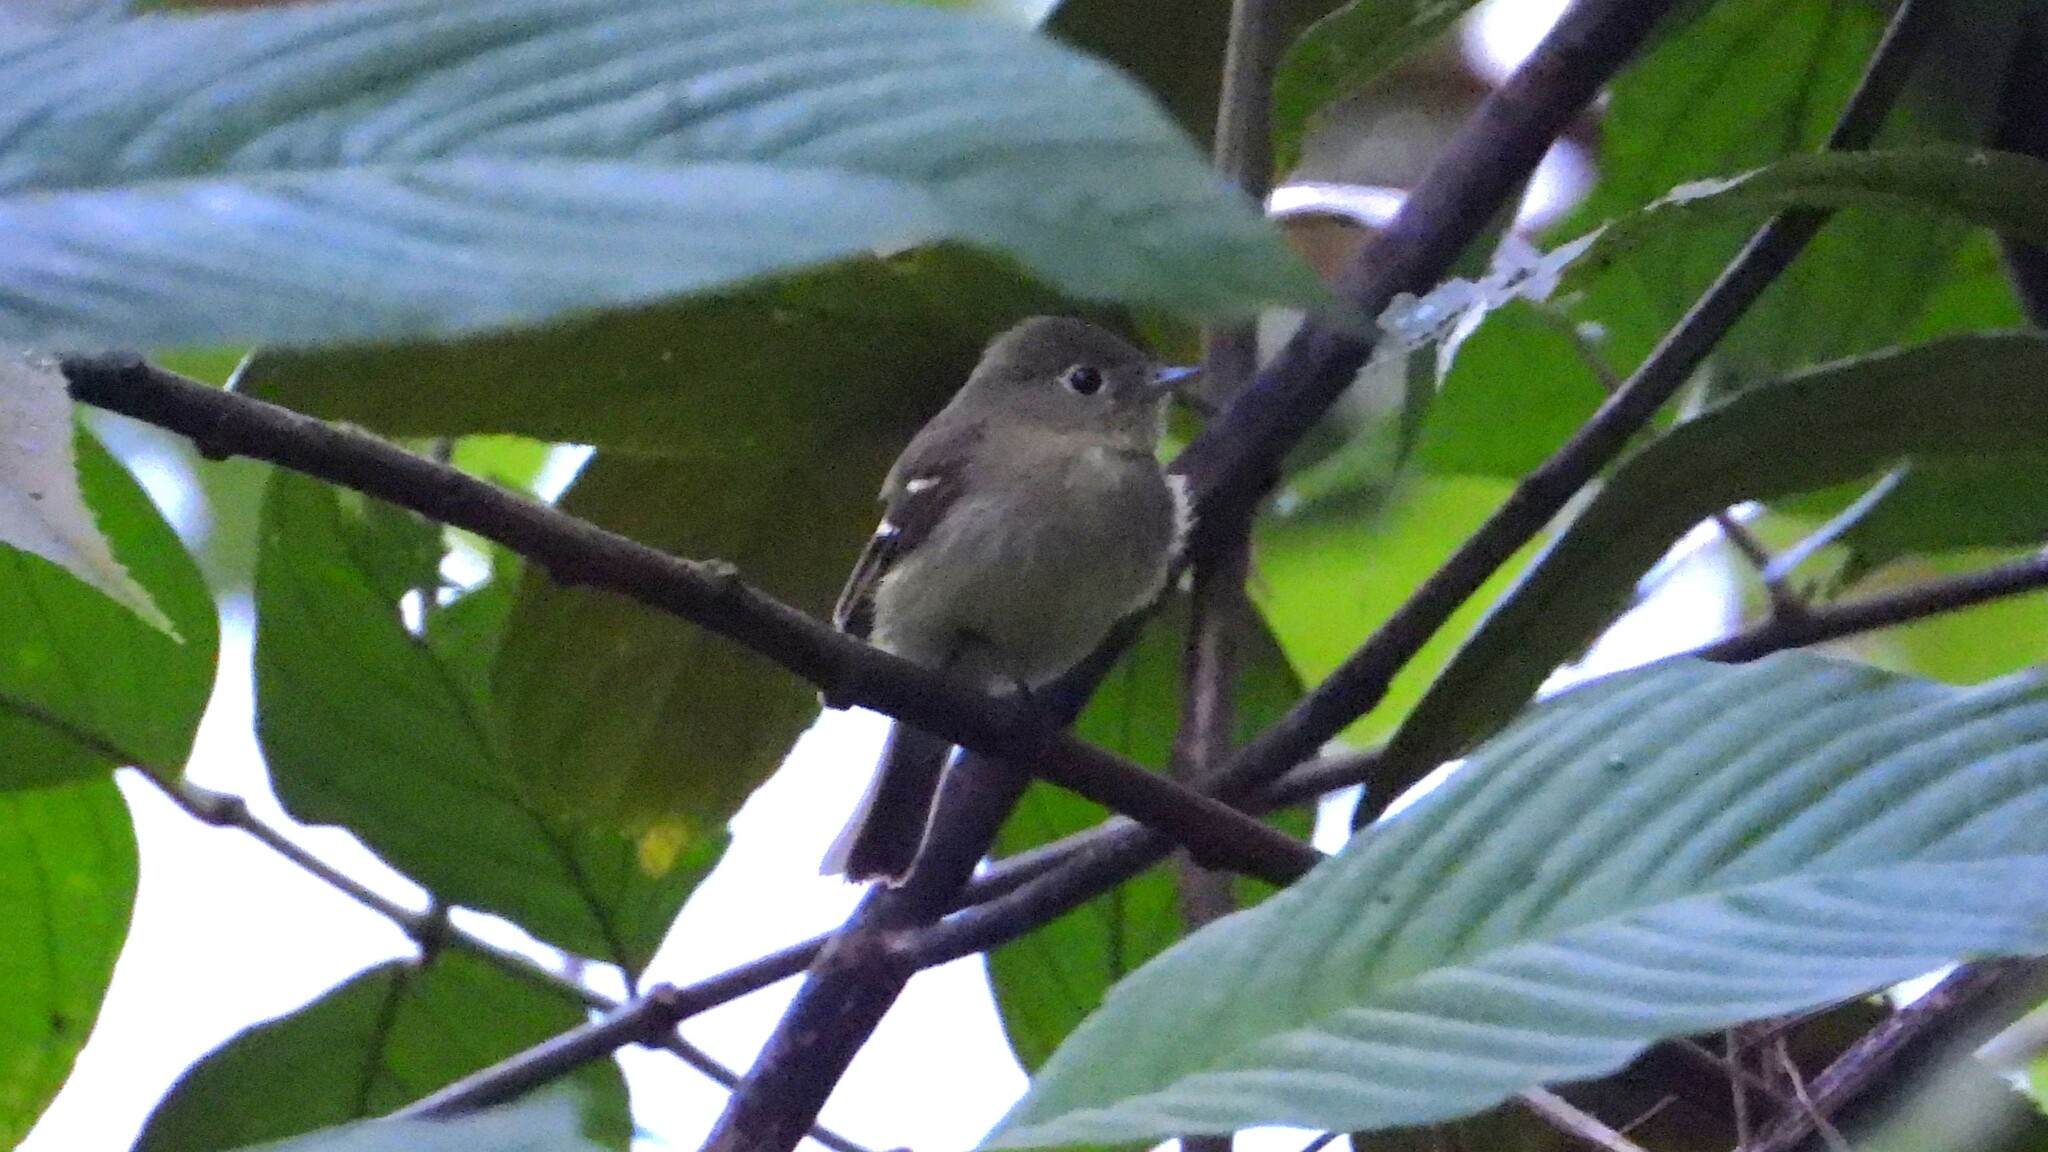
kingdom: Animalia
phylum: Chordata
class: Aves
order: Passeriformes
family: Tyrannidae
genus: Empidonax
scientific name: Empidonax flaviventris
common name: Yellow-bellied flycatcher
